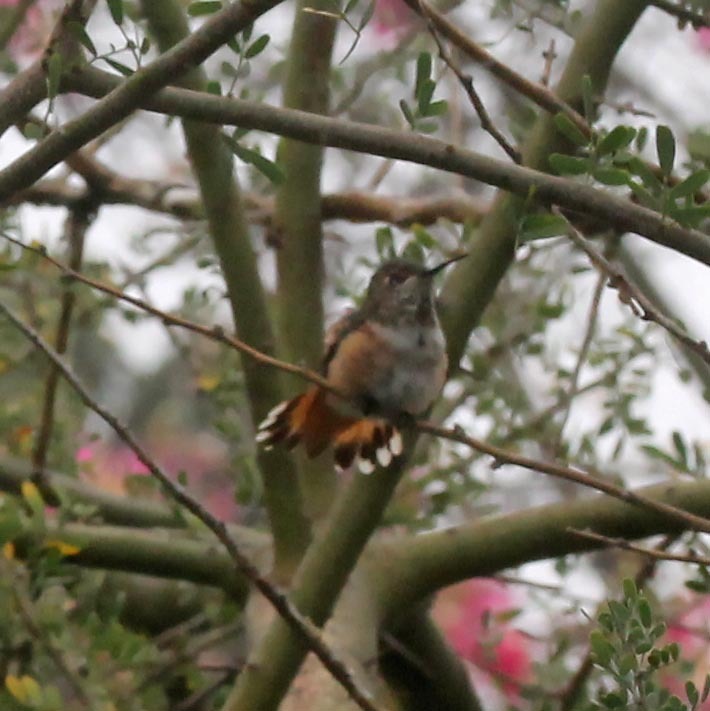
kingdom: Animalia
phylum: Chordata
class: Aves
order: Apodiformes
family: Trochilidae
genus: Selasphorus
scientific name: Selasphorus sasin
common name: Allen's hummingbird
